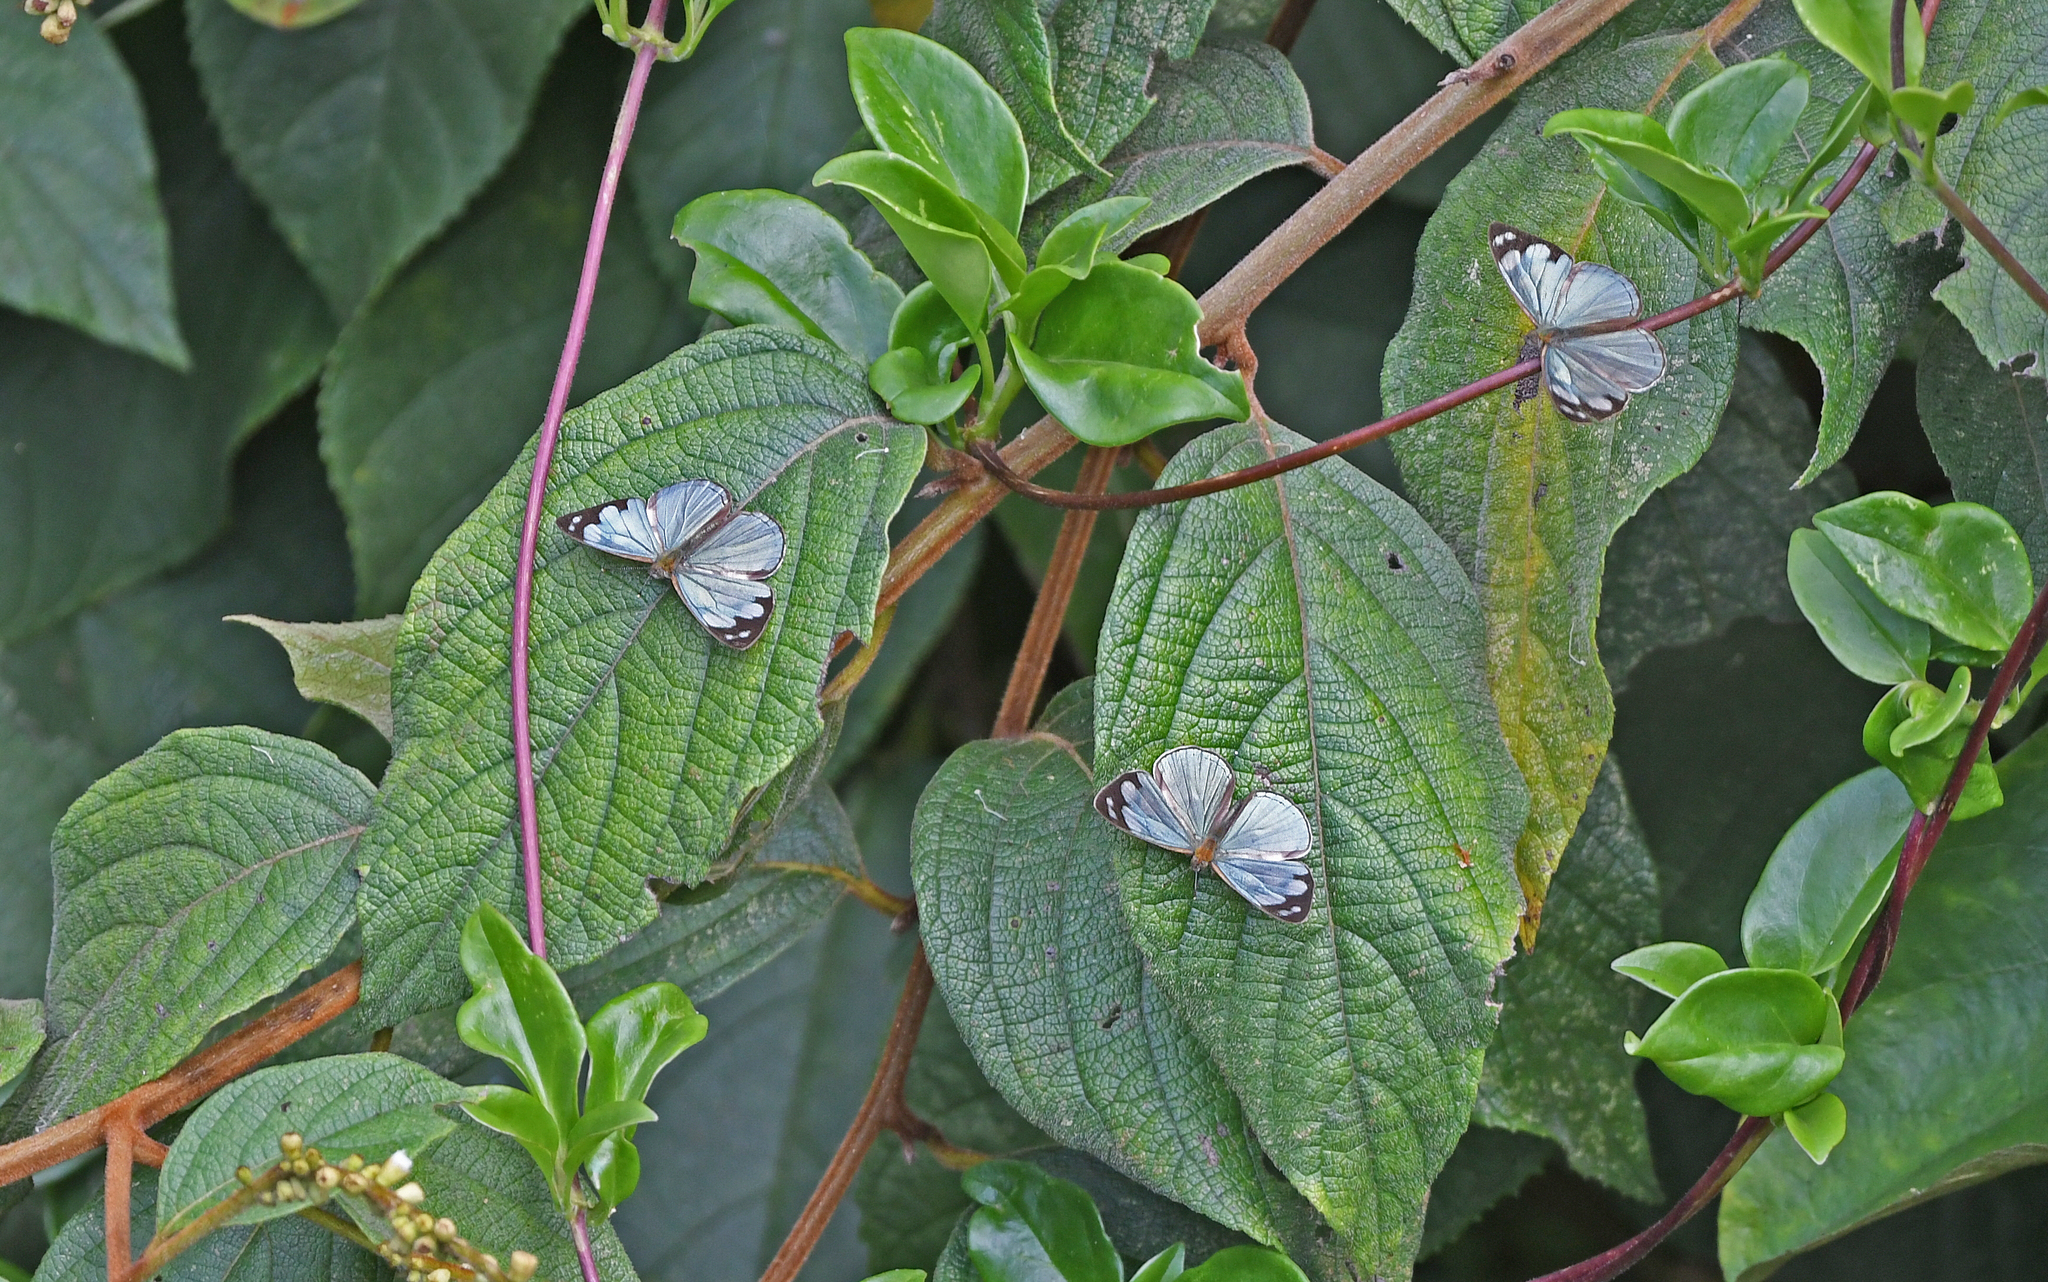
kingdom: Animalia
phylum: Arthropoda
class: Insecta
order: Lepidoptera
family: Nymphalidae
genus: Dynamine
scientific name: Dynamine setabis
